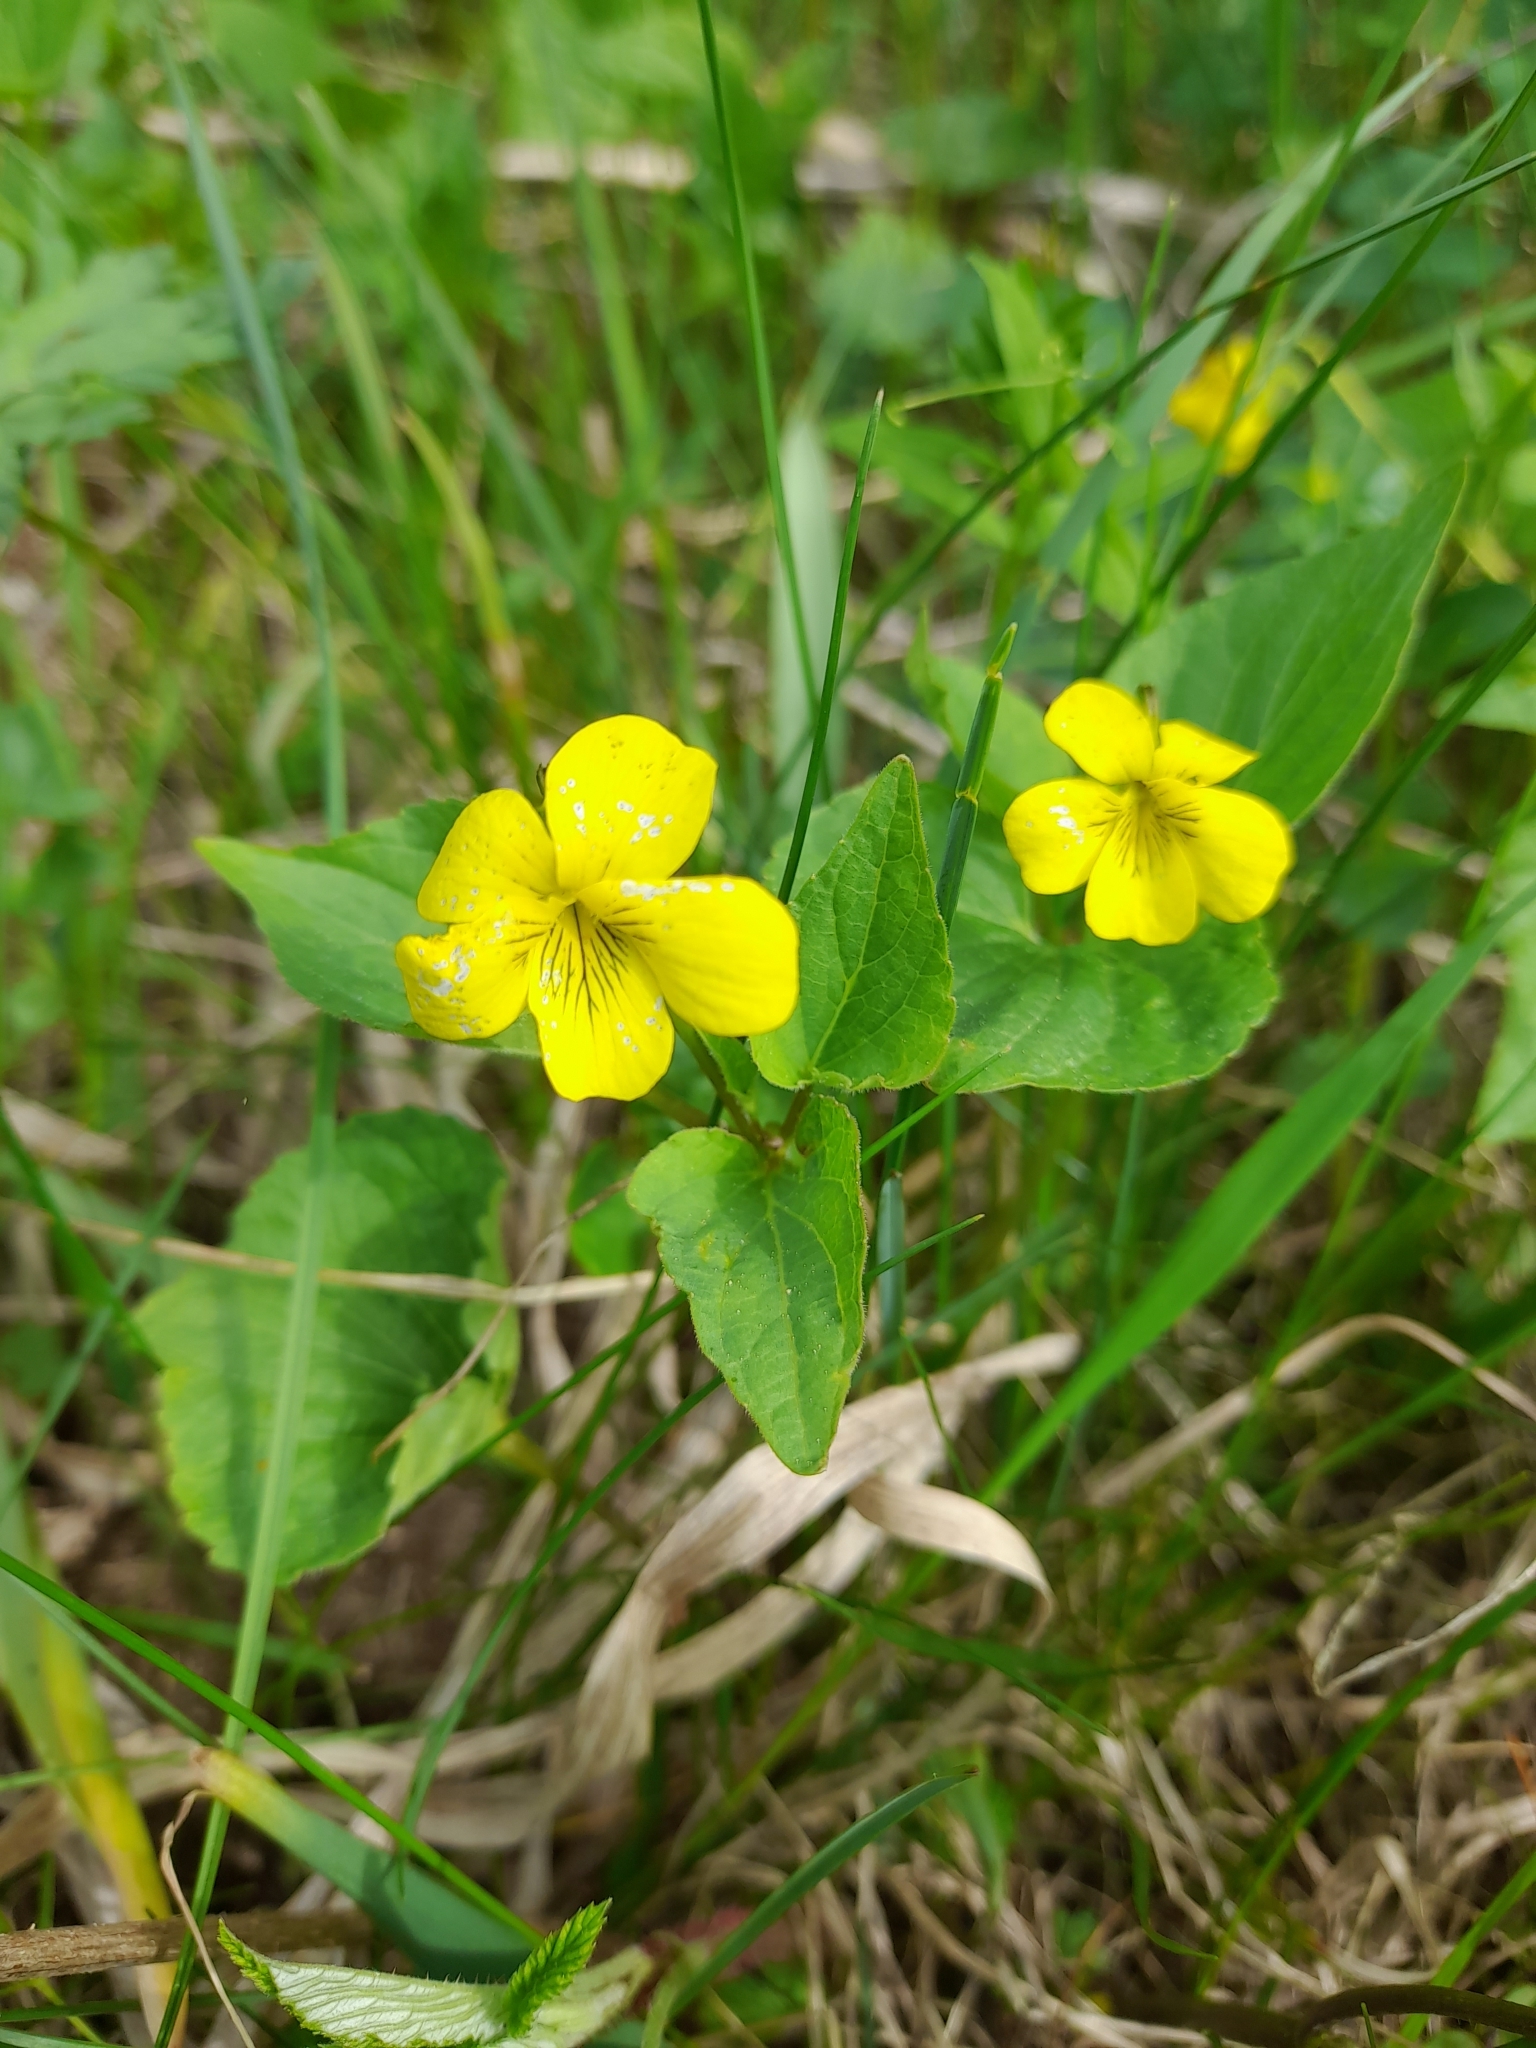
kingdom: Plantae
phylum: Tracheophyta
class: Magnoliopsida
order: Malpighiales
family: Violaceae
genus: Viola
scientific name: Viola acutifolia
